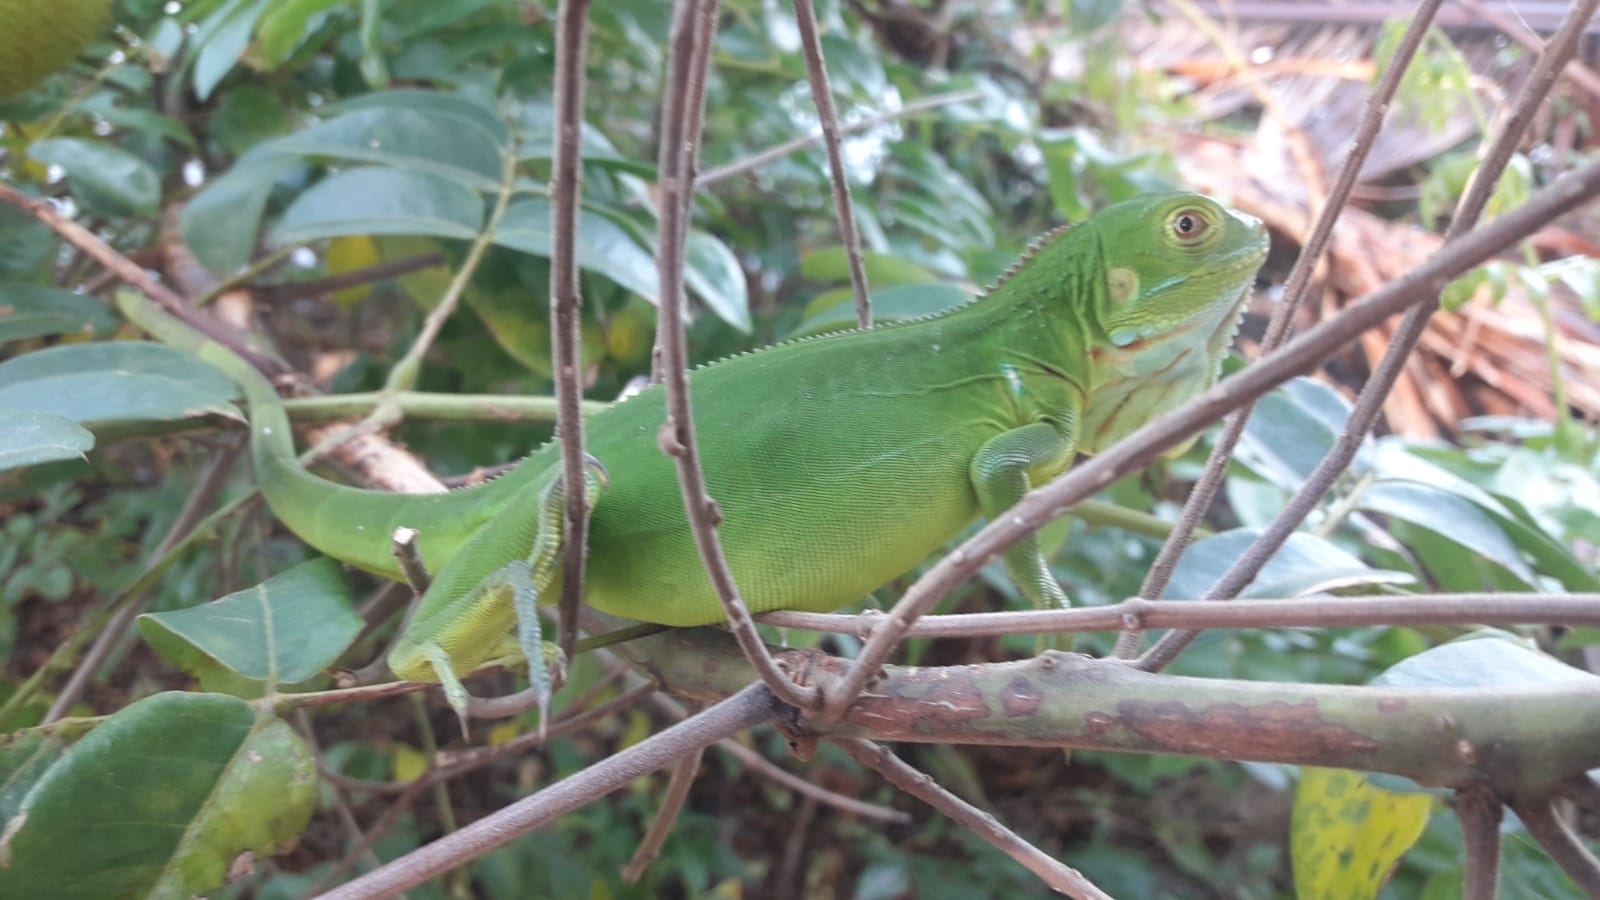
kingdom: Animalia
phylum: Chordata
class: Squamata
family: Iguanidae
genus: Iguana
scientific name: Iguana iguana
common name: Green iguana
